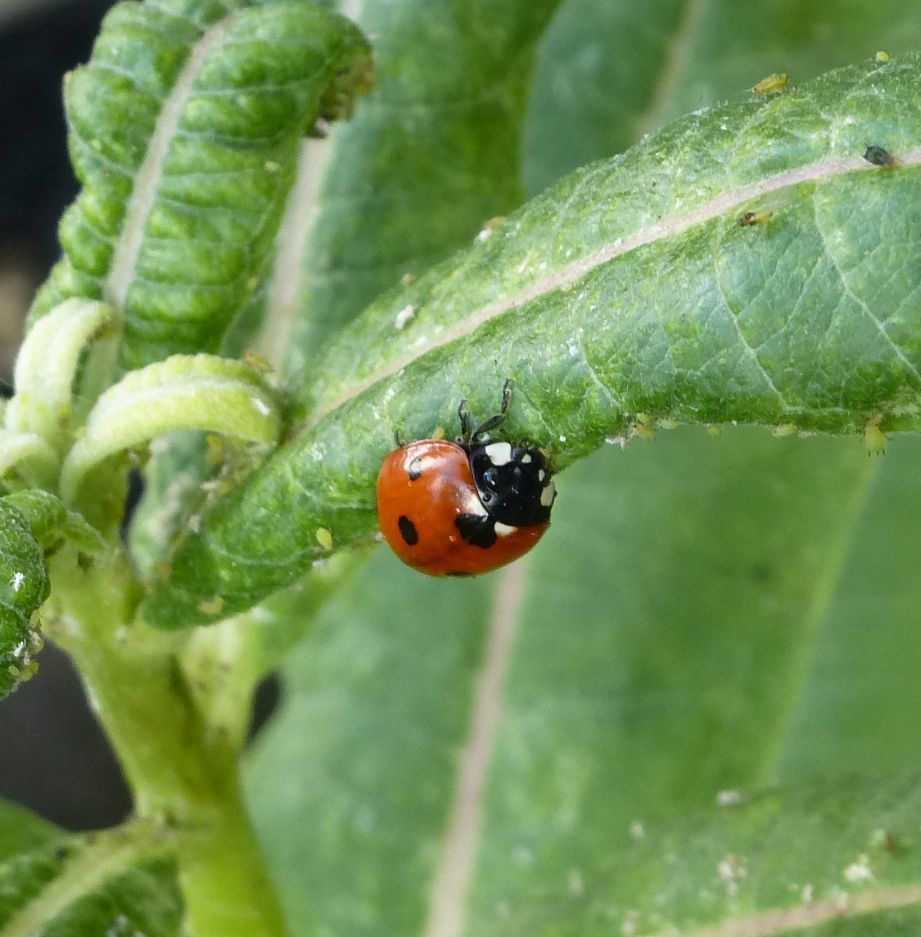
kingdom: Animalia
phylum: Arthropoda
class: Insecta
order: Coleoptera
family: Coccinellidae
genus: Coccinella
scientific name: Coccinella septempunctata
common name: Sevenspotted lady beetle
